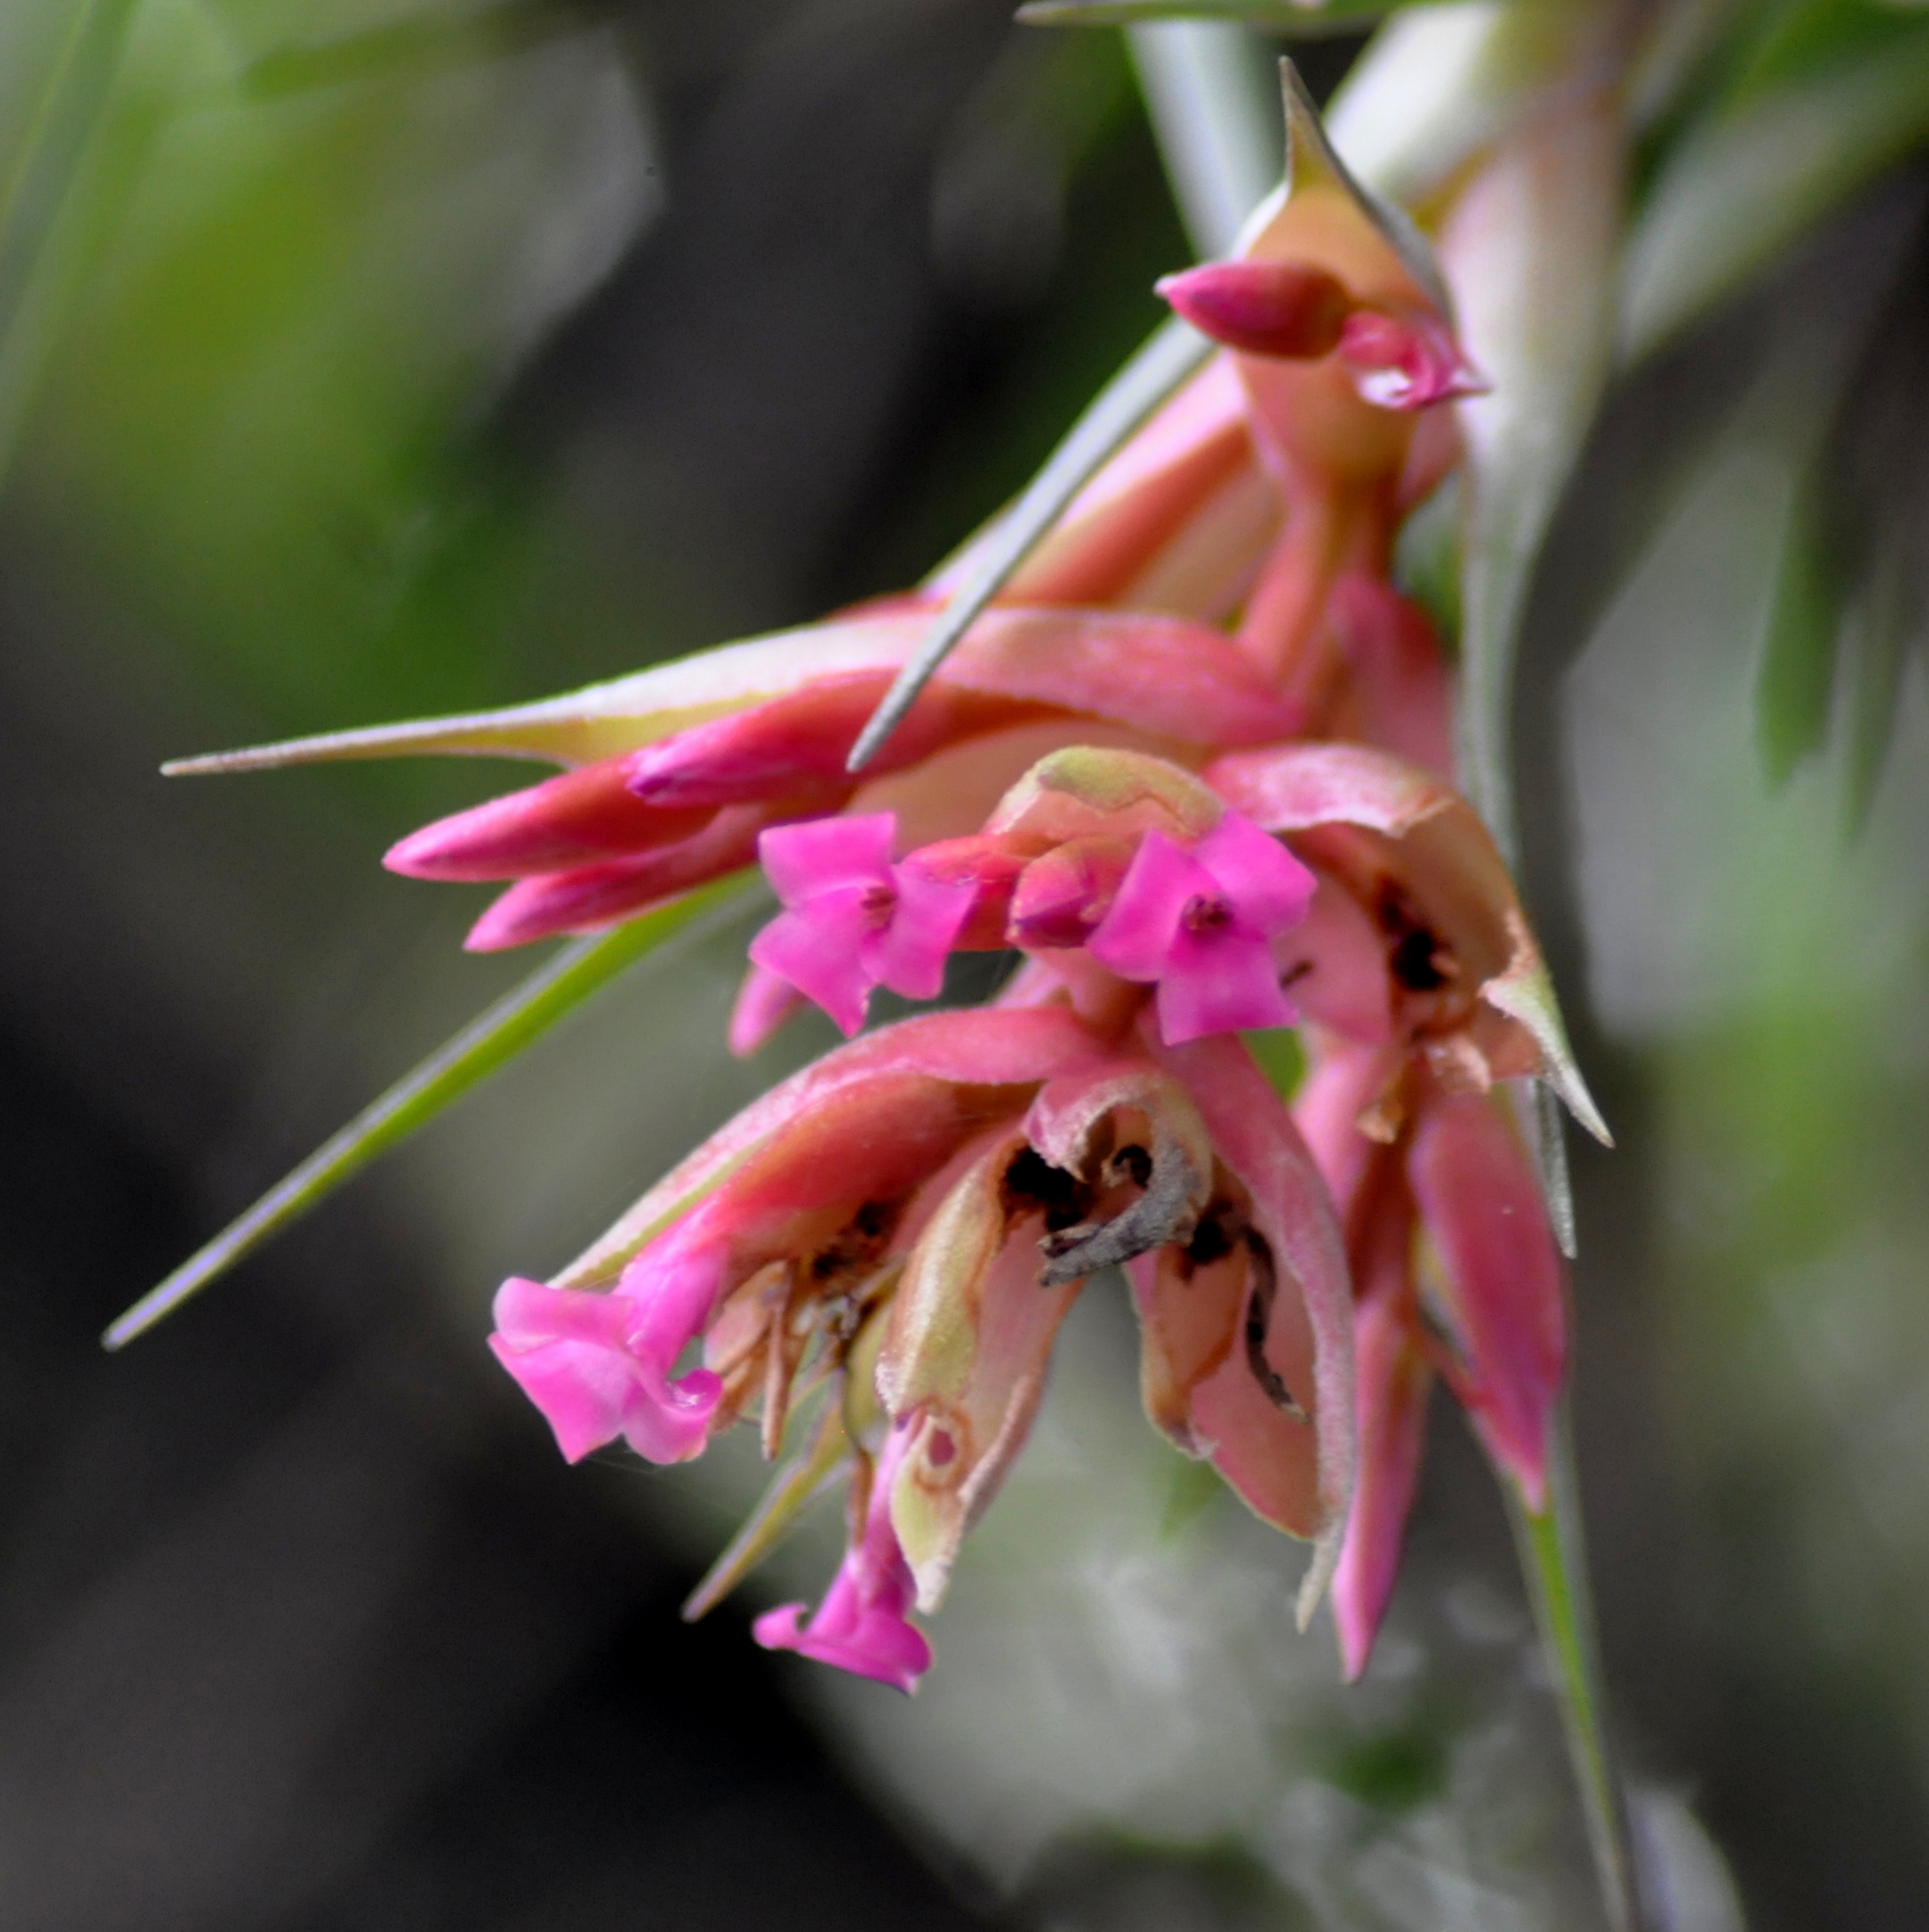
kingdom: Plantae
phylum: Tracheophyta
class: Liliopsida
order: Poales
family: Bromeliaceae
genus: Tillandsia
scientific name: Tillandsia geminiflora
